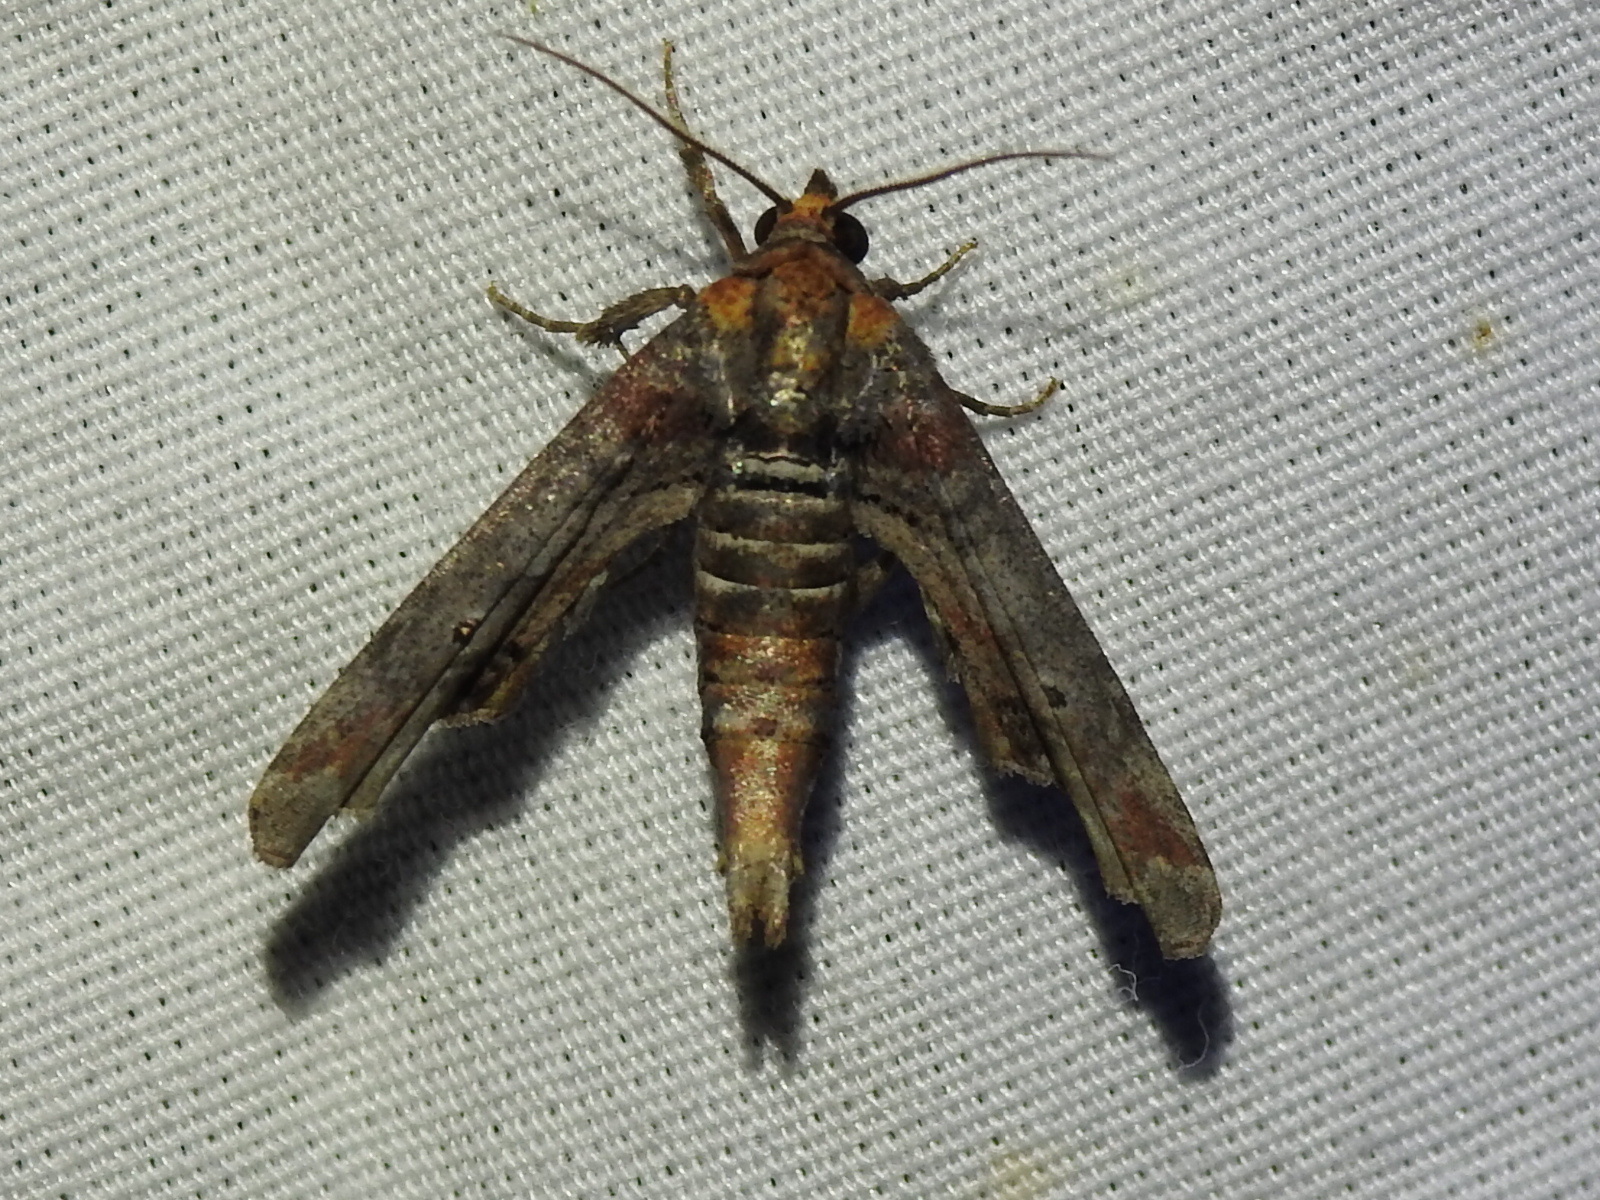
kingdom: Animalia
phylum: Arthropoda
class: Insecta
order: Lepidoptera
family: Euteliidae
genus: Marathyssa
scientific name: Marathyssa inficita
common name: Dark marathyssa moth
